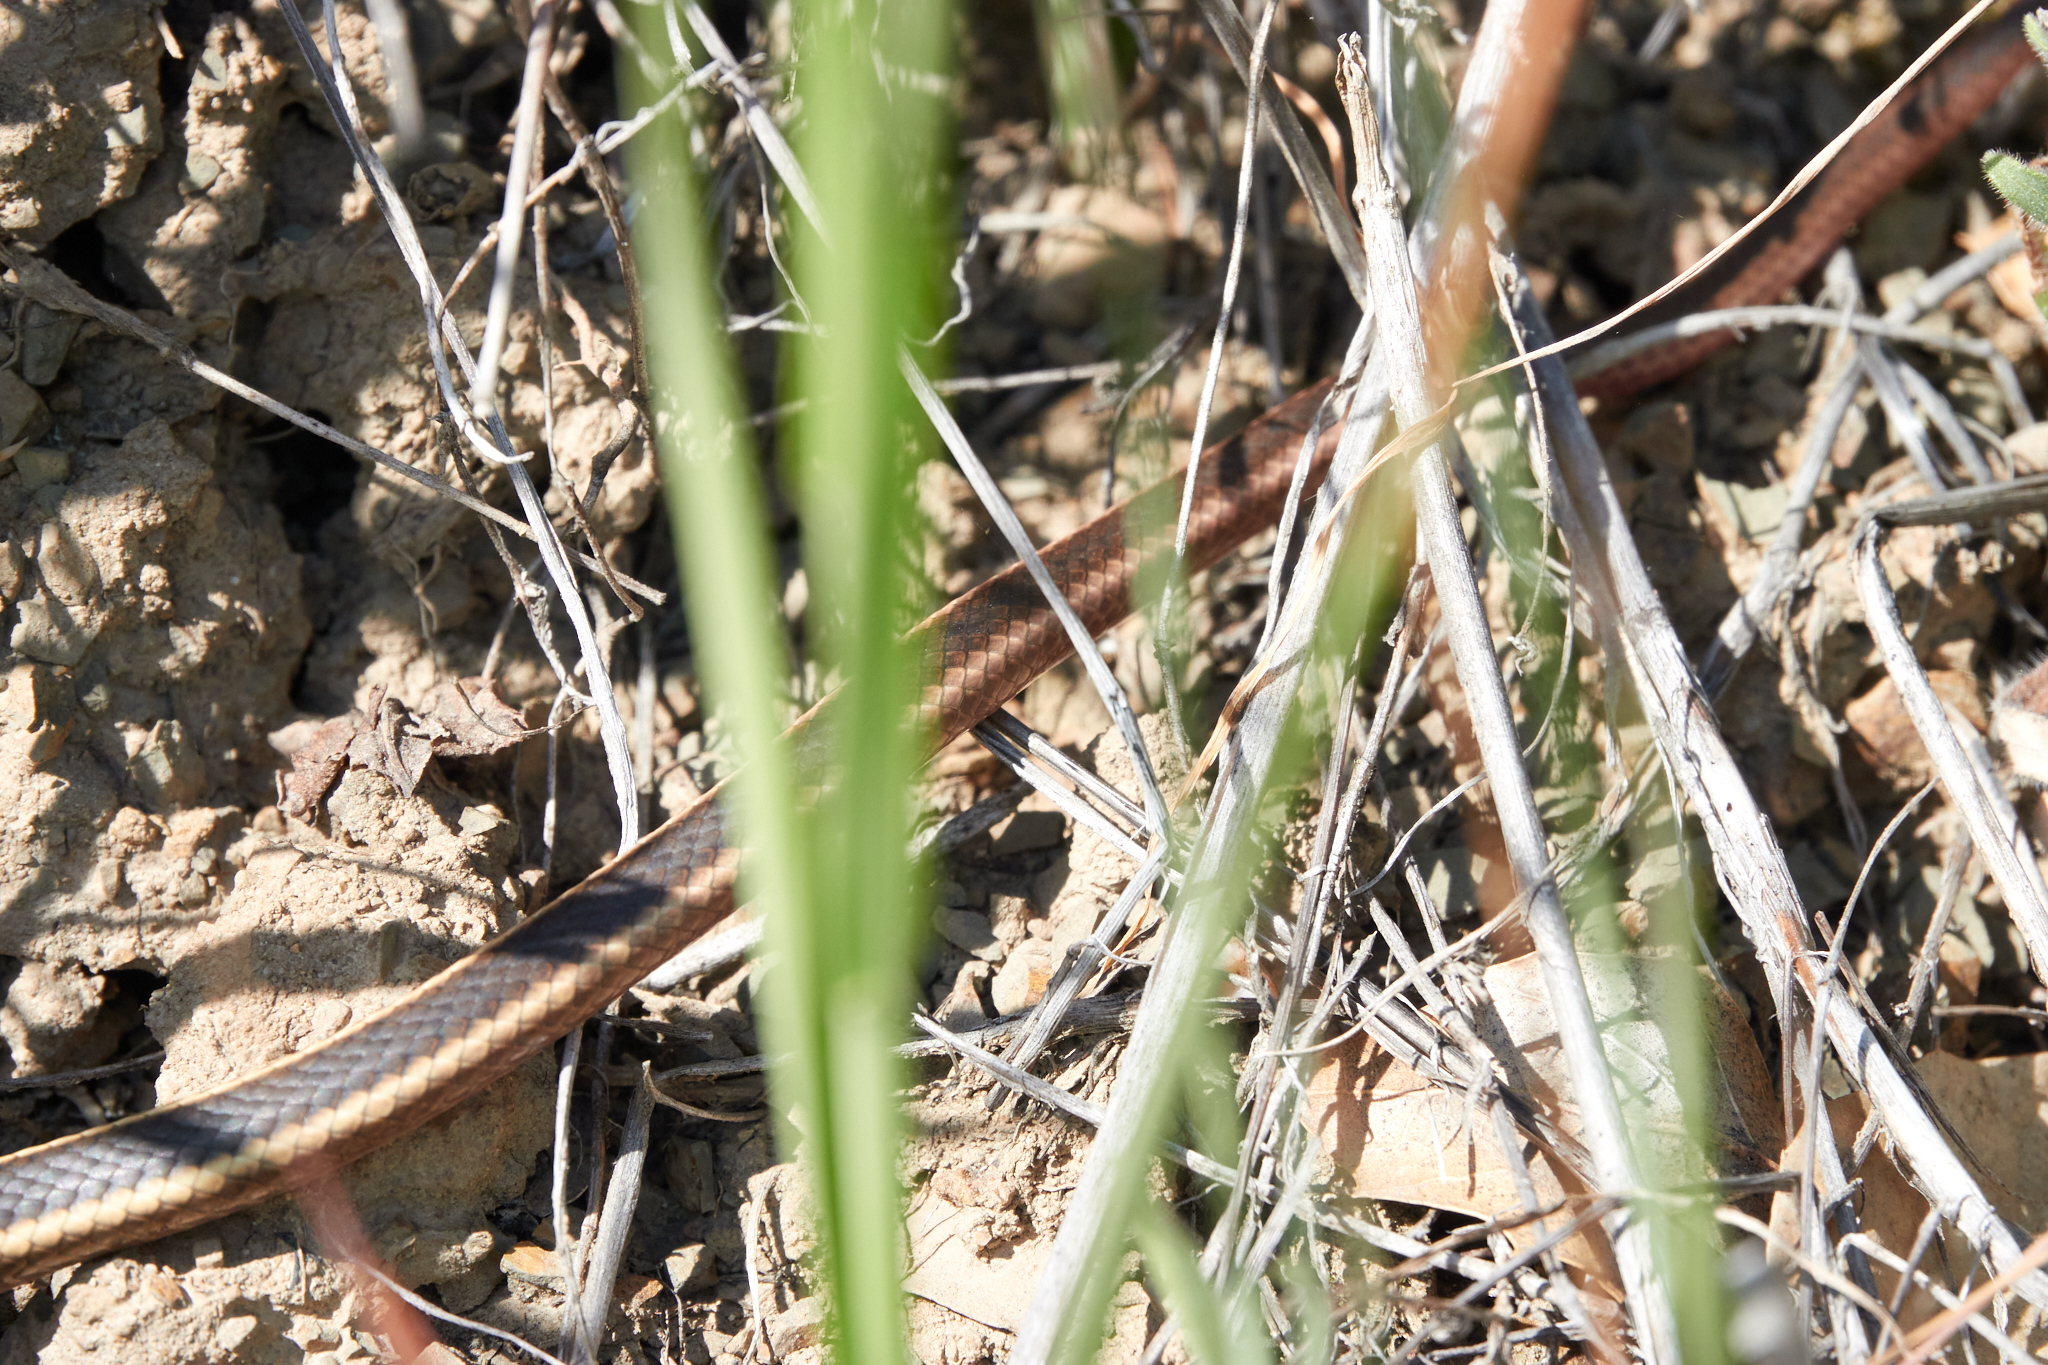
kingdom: Animalia
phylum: Chordata
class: Squamata
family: Colubridae
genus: Masticophis
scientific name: Masticophis lateralis
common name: Striped racer
